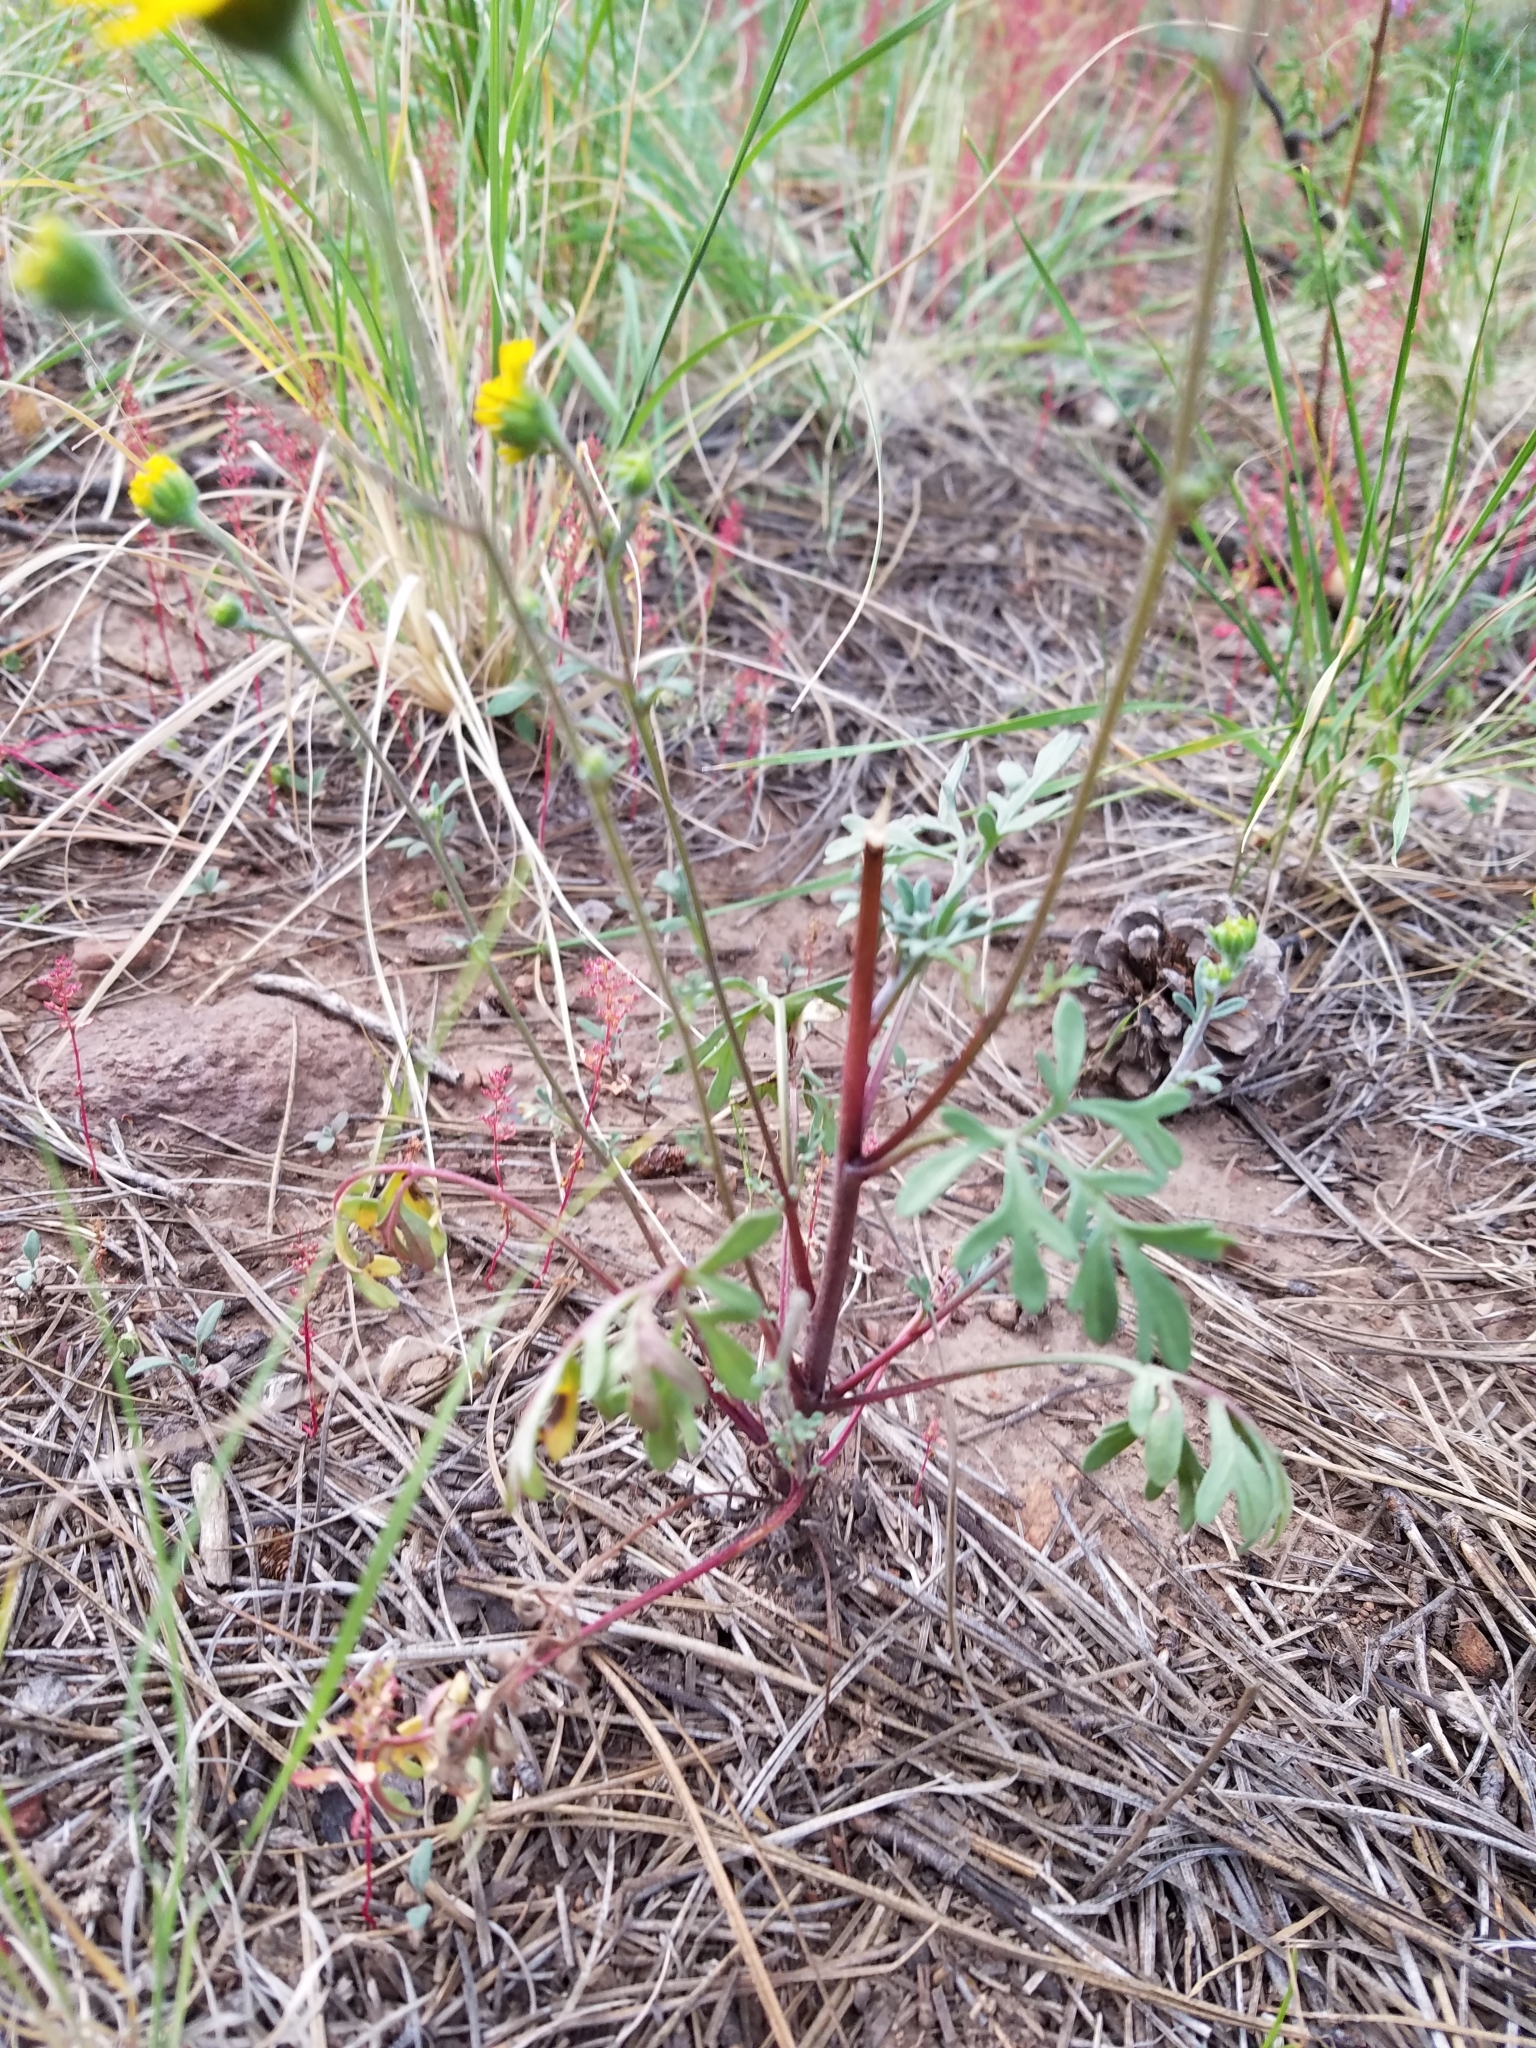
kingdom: Plantae
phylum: Tracheophyta
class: Magnoliopsida
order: Asterales
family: Asteraceae
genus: Hymenothrix
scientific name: Hymenothrix dissecta
